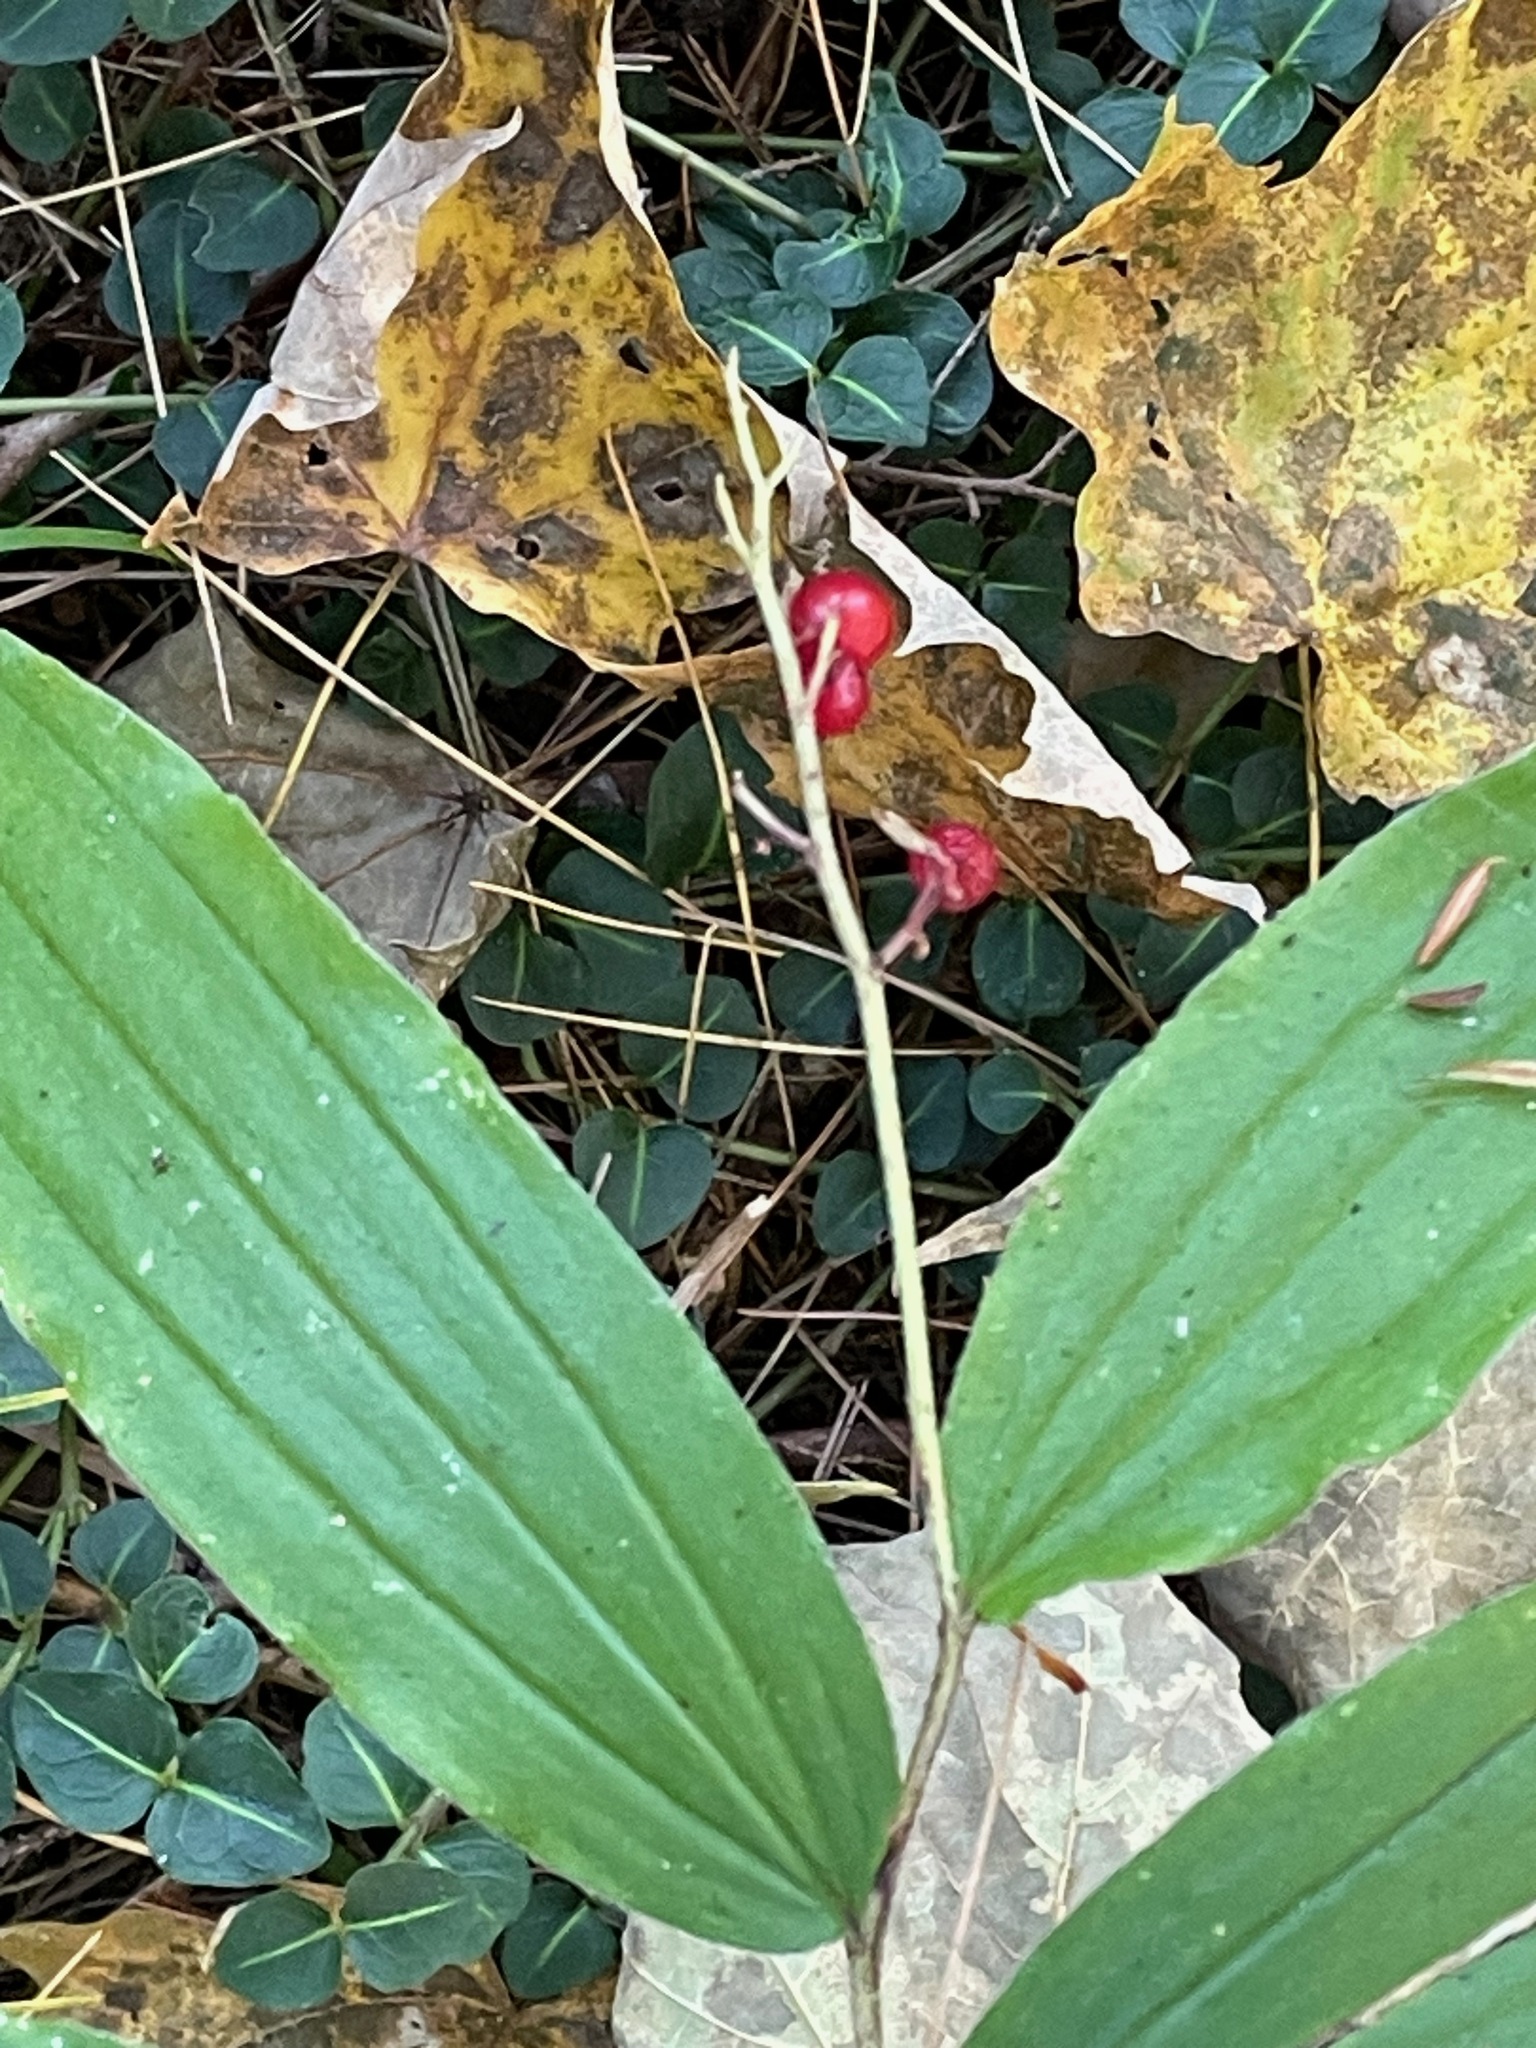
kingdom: Plantae
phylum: Tracheophyta
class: Liliopsida
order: Asparagales
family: Asparagaceae
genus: Maianthemum
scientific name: Maianthemum racemosum
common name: False spikenard
